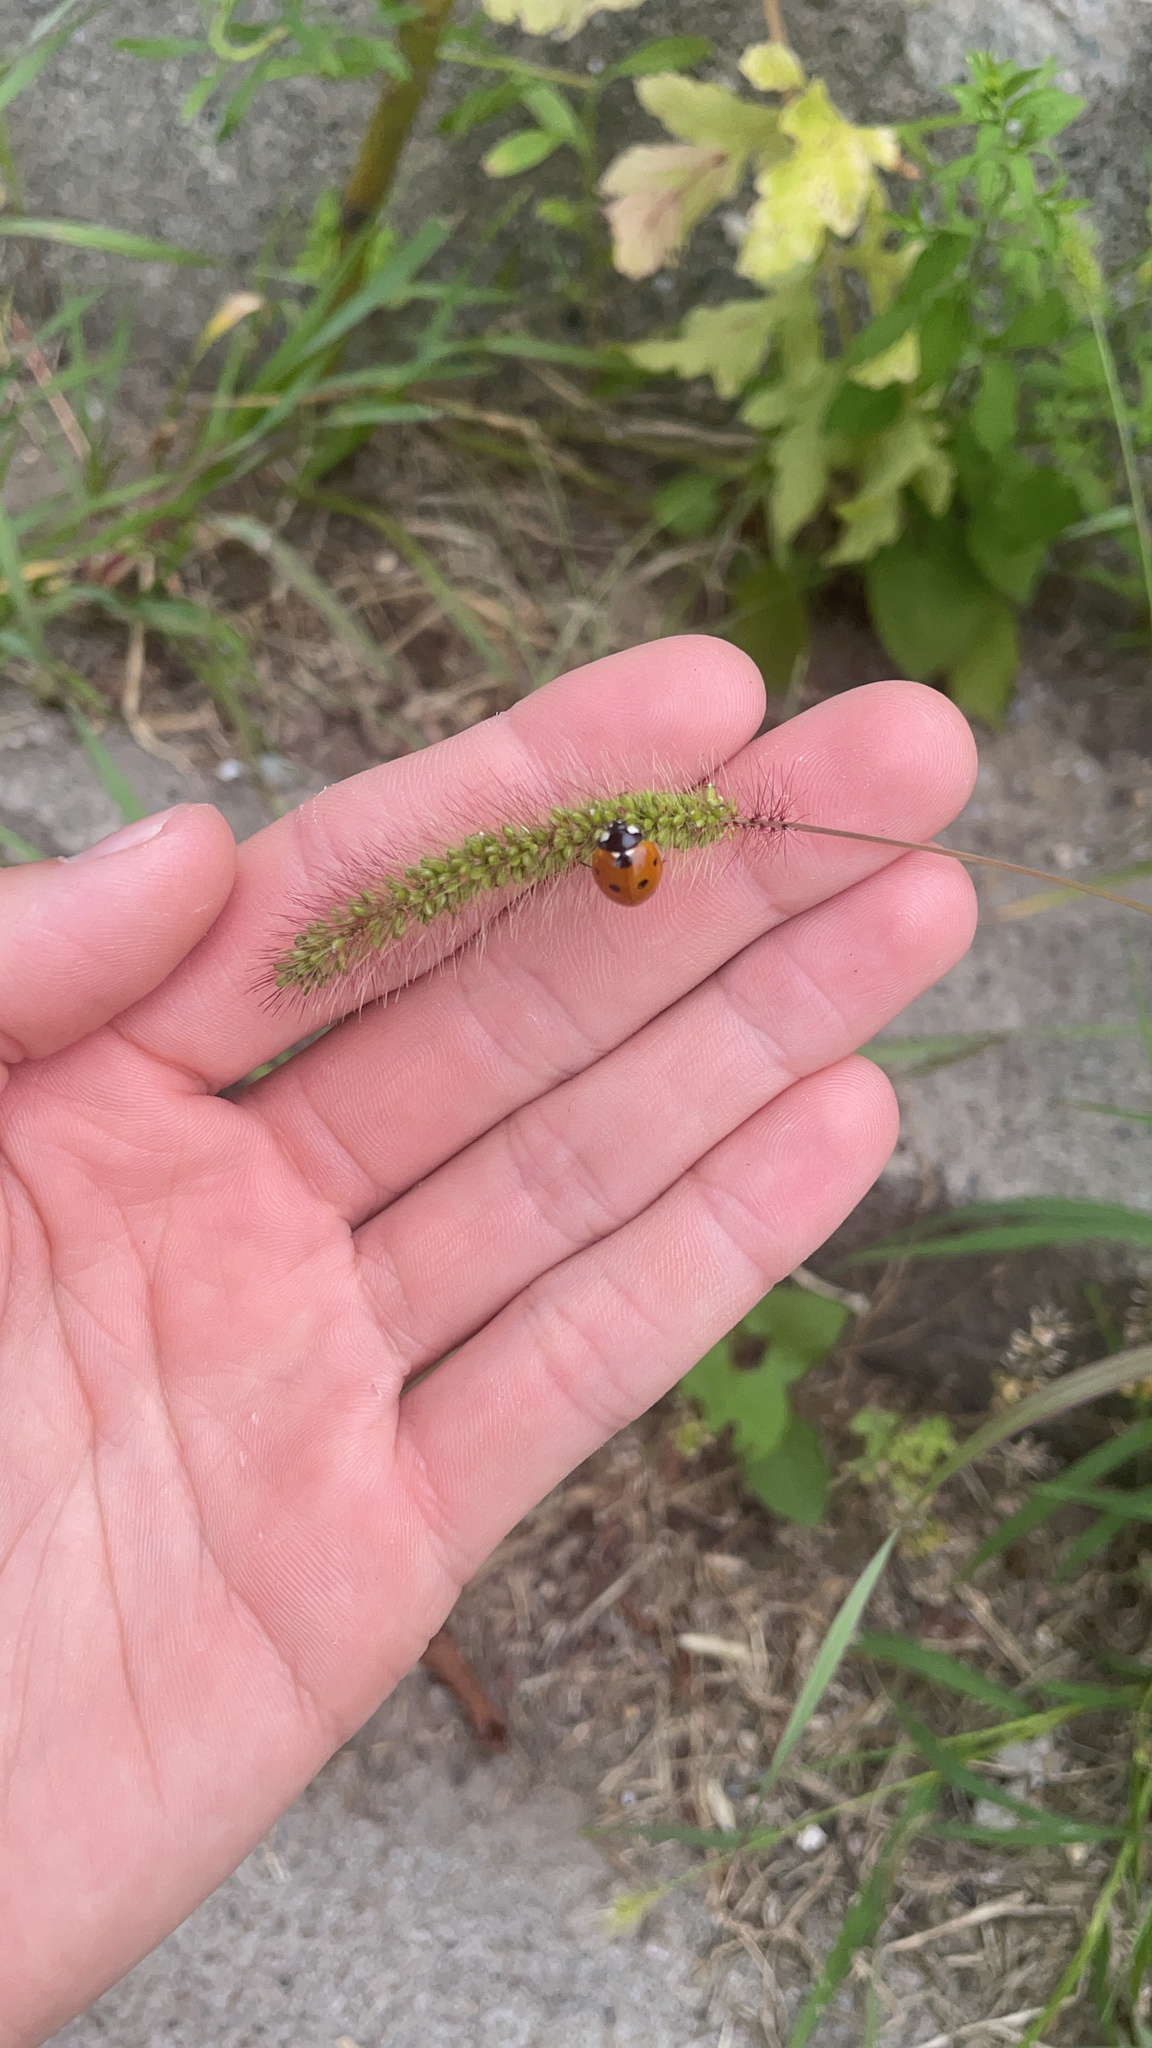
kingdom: Animalia
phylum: Arthropoda
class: Insecta
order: Coleoptera
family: Coccinellidae
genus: Coccinella
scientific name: Coccinella septempunctata
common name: Sevenspotted lady beetle
